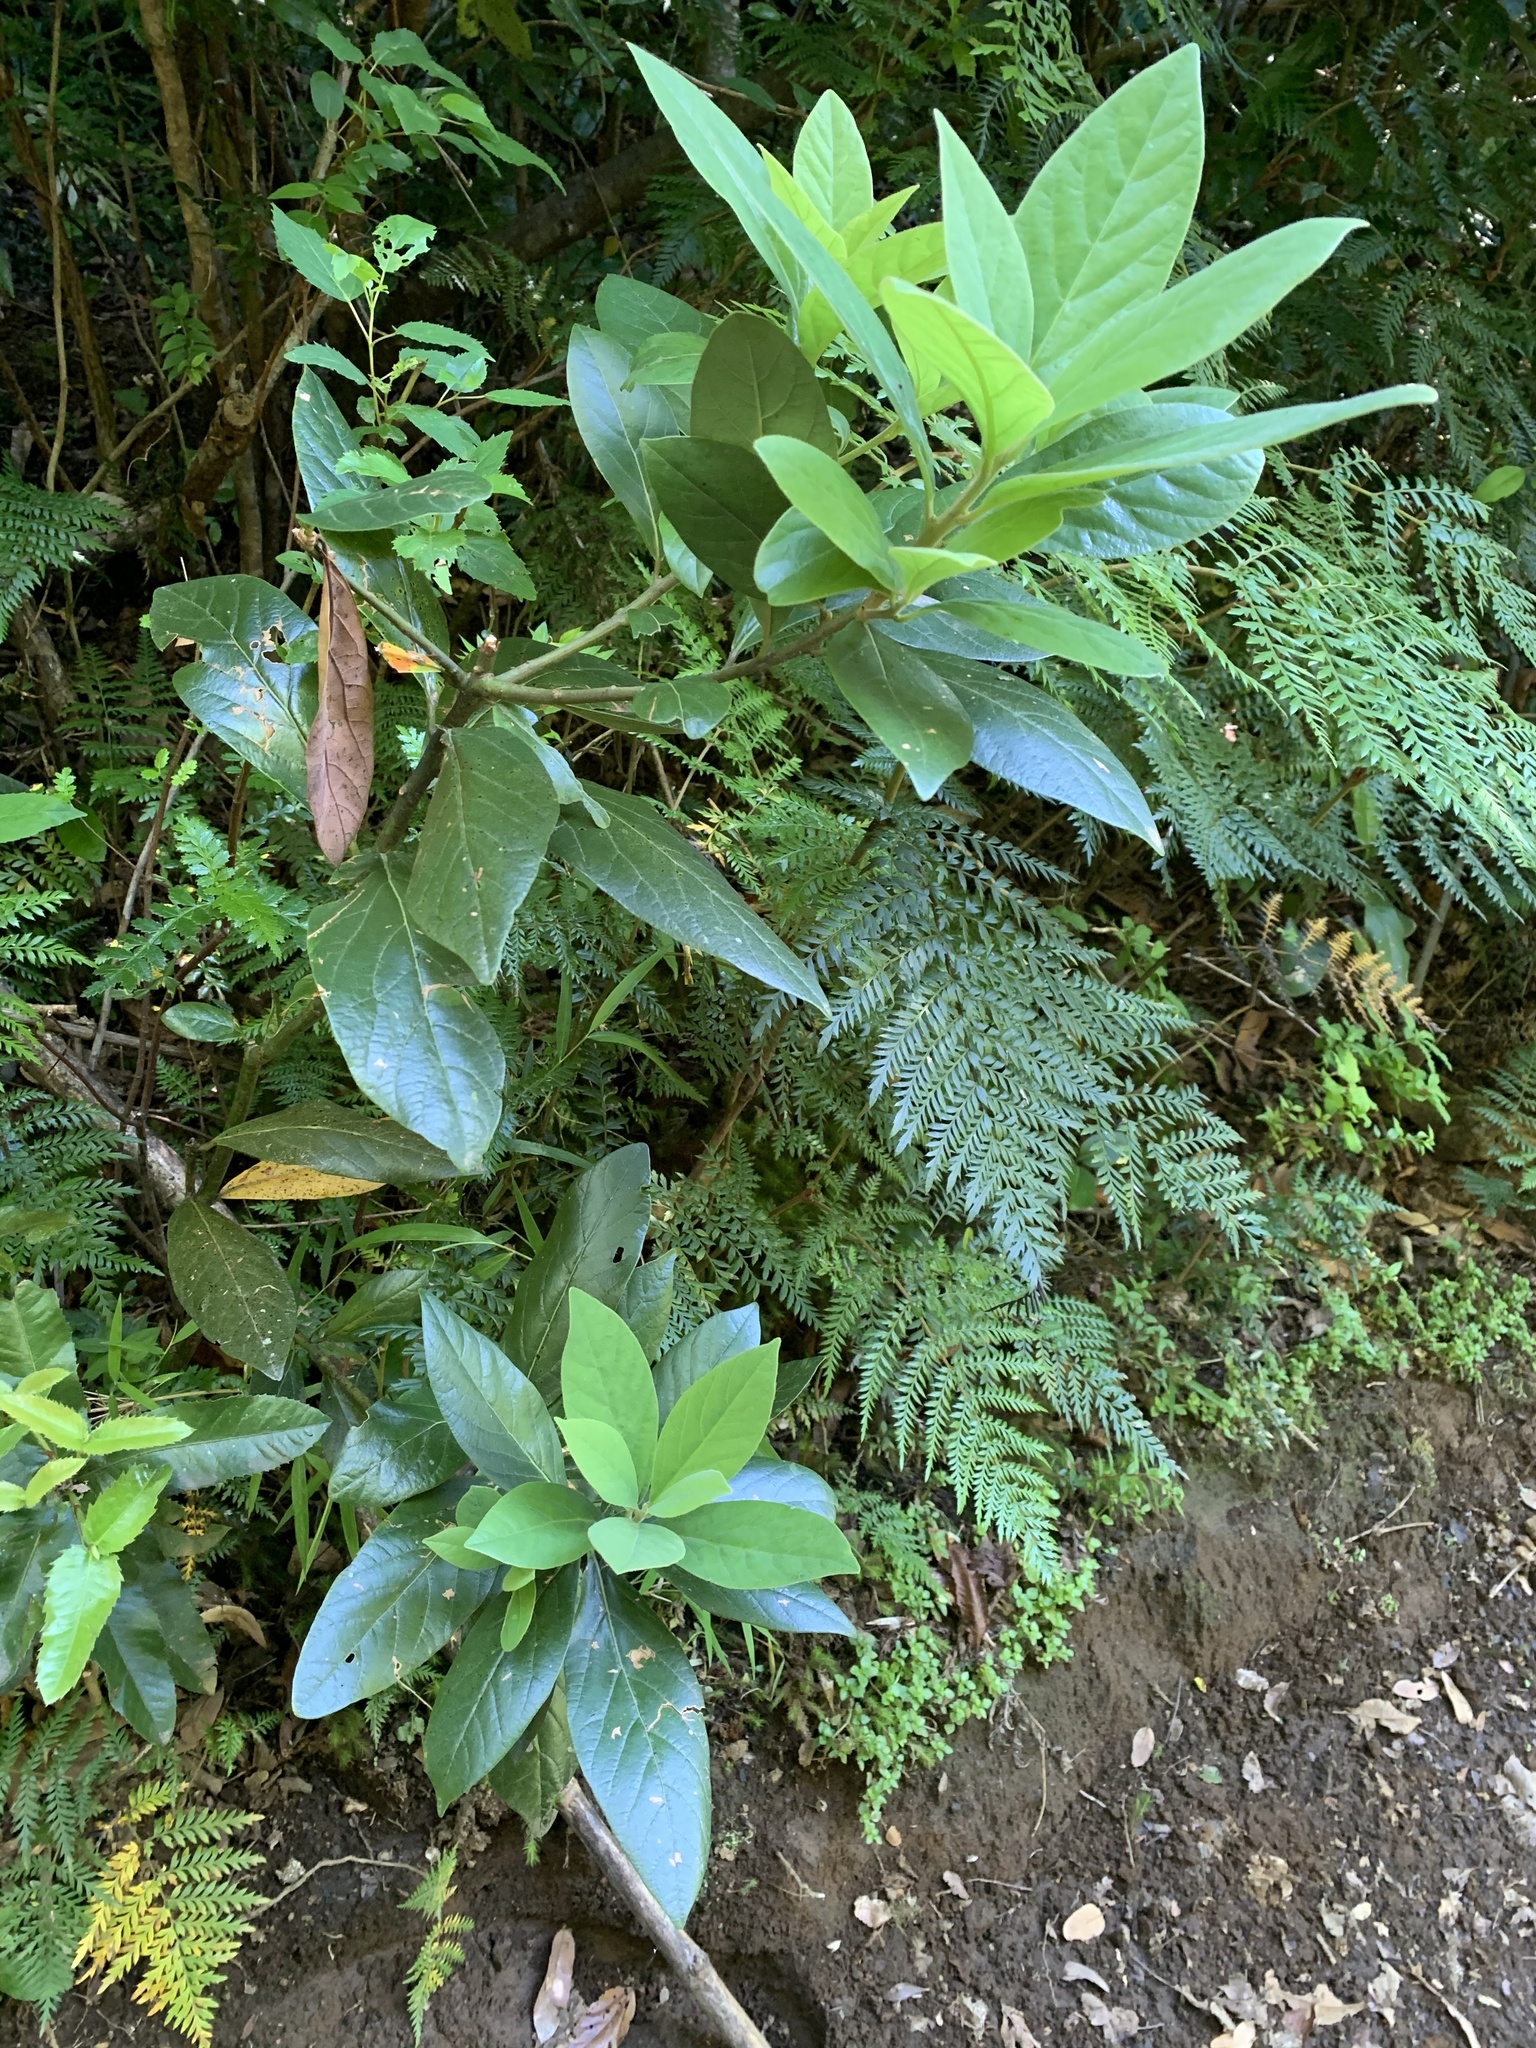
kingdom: Plantae
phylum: Tracheophyta
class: Magnoliopsida
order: Laurales
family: Lauraceae
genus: Persea
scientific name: Persea lingue
